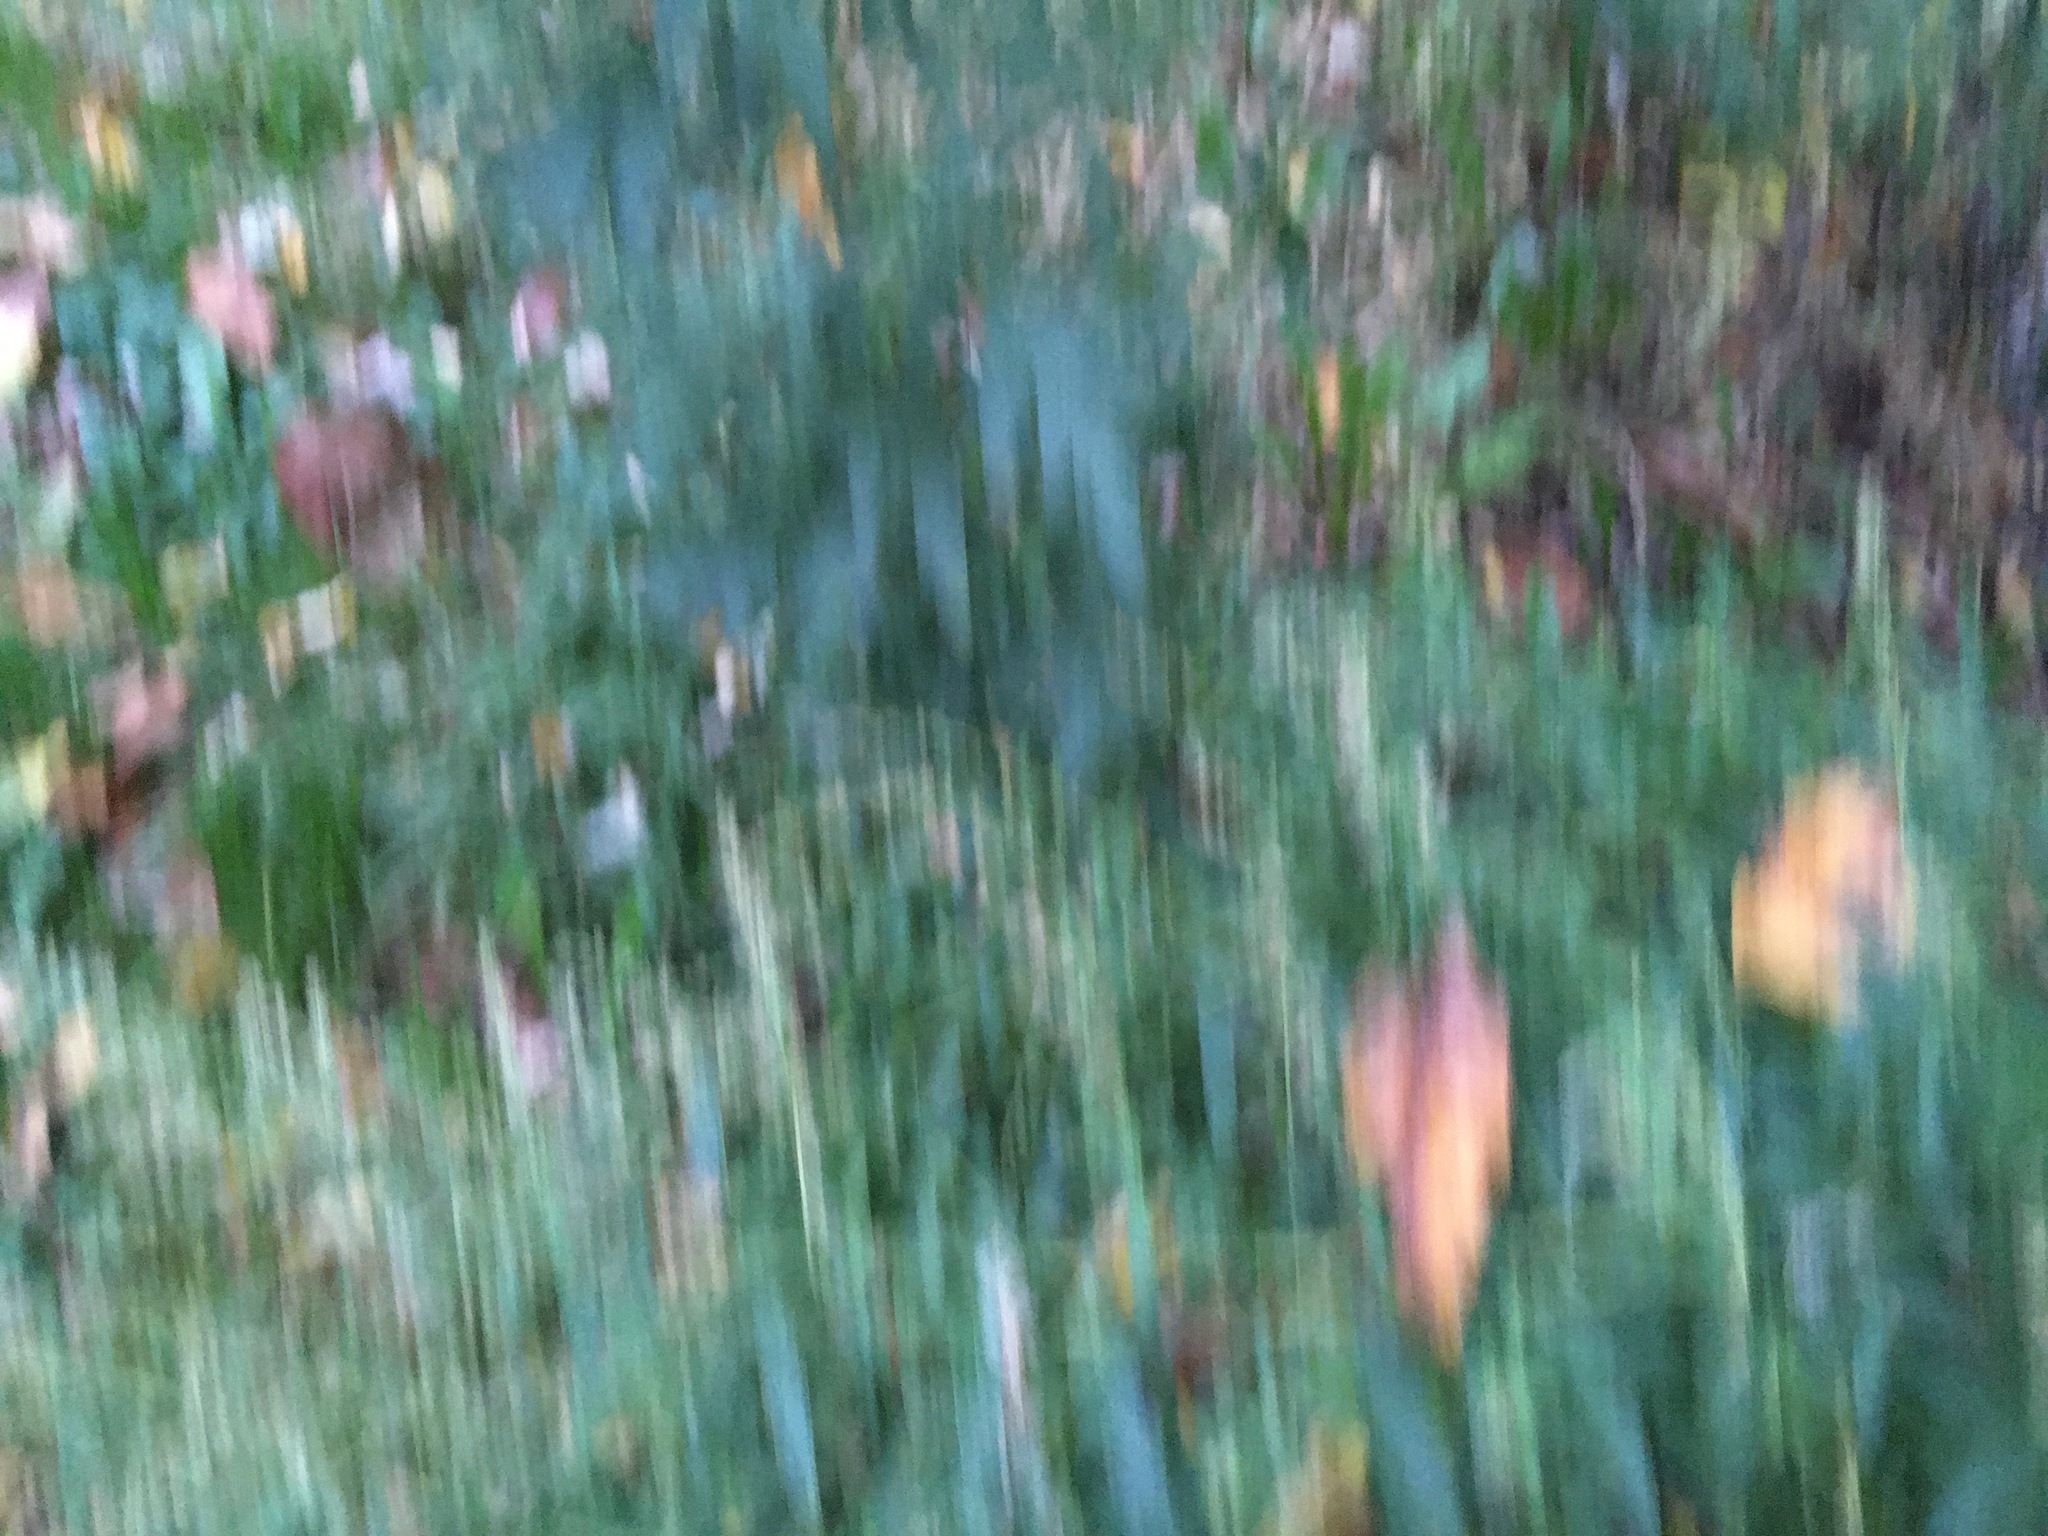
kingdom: Plantae
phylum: Tracheophyta
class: Magnoliopsida
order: Asterales
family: Asteraceae
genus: Artemisia
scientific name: Artemisia vulgaris
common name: Mugwort
